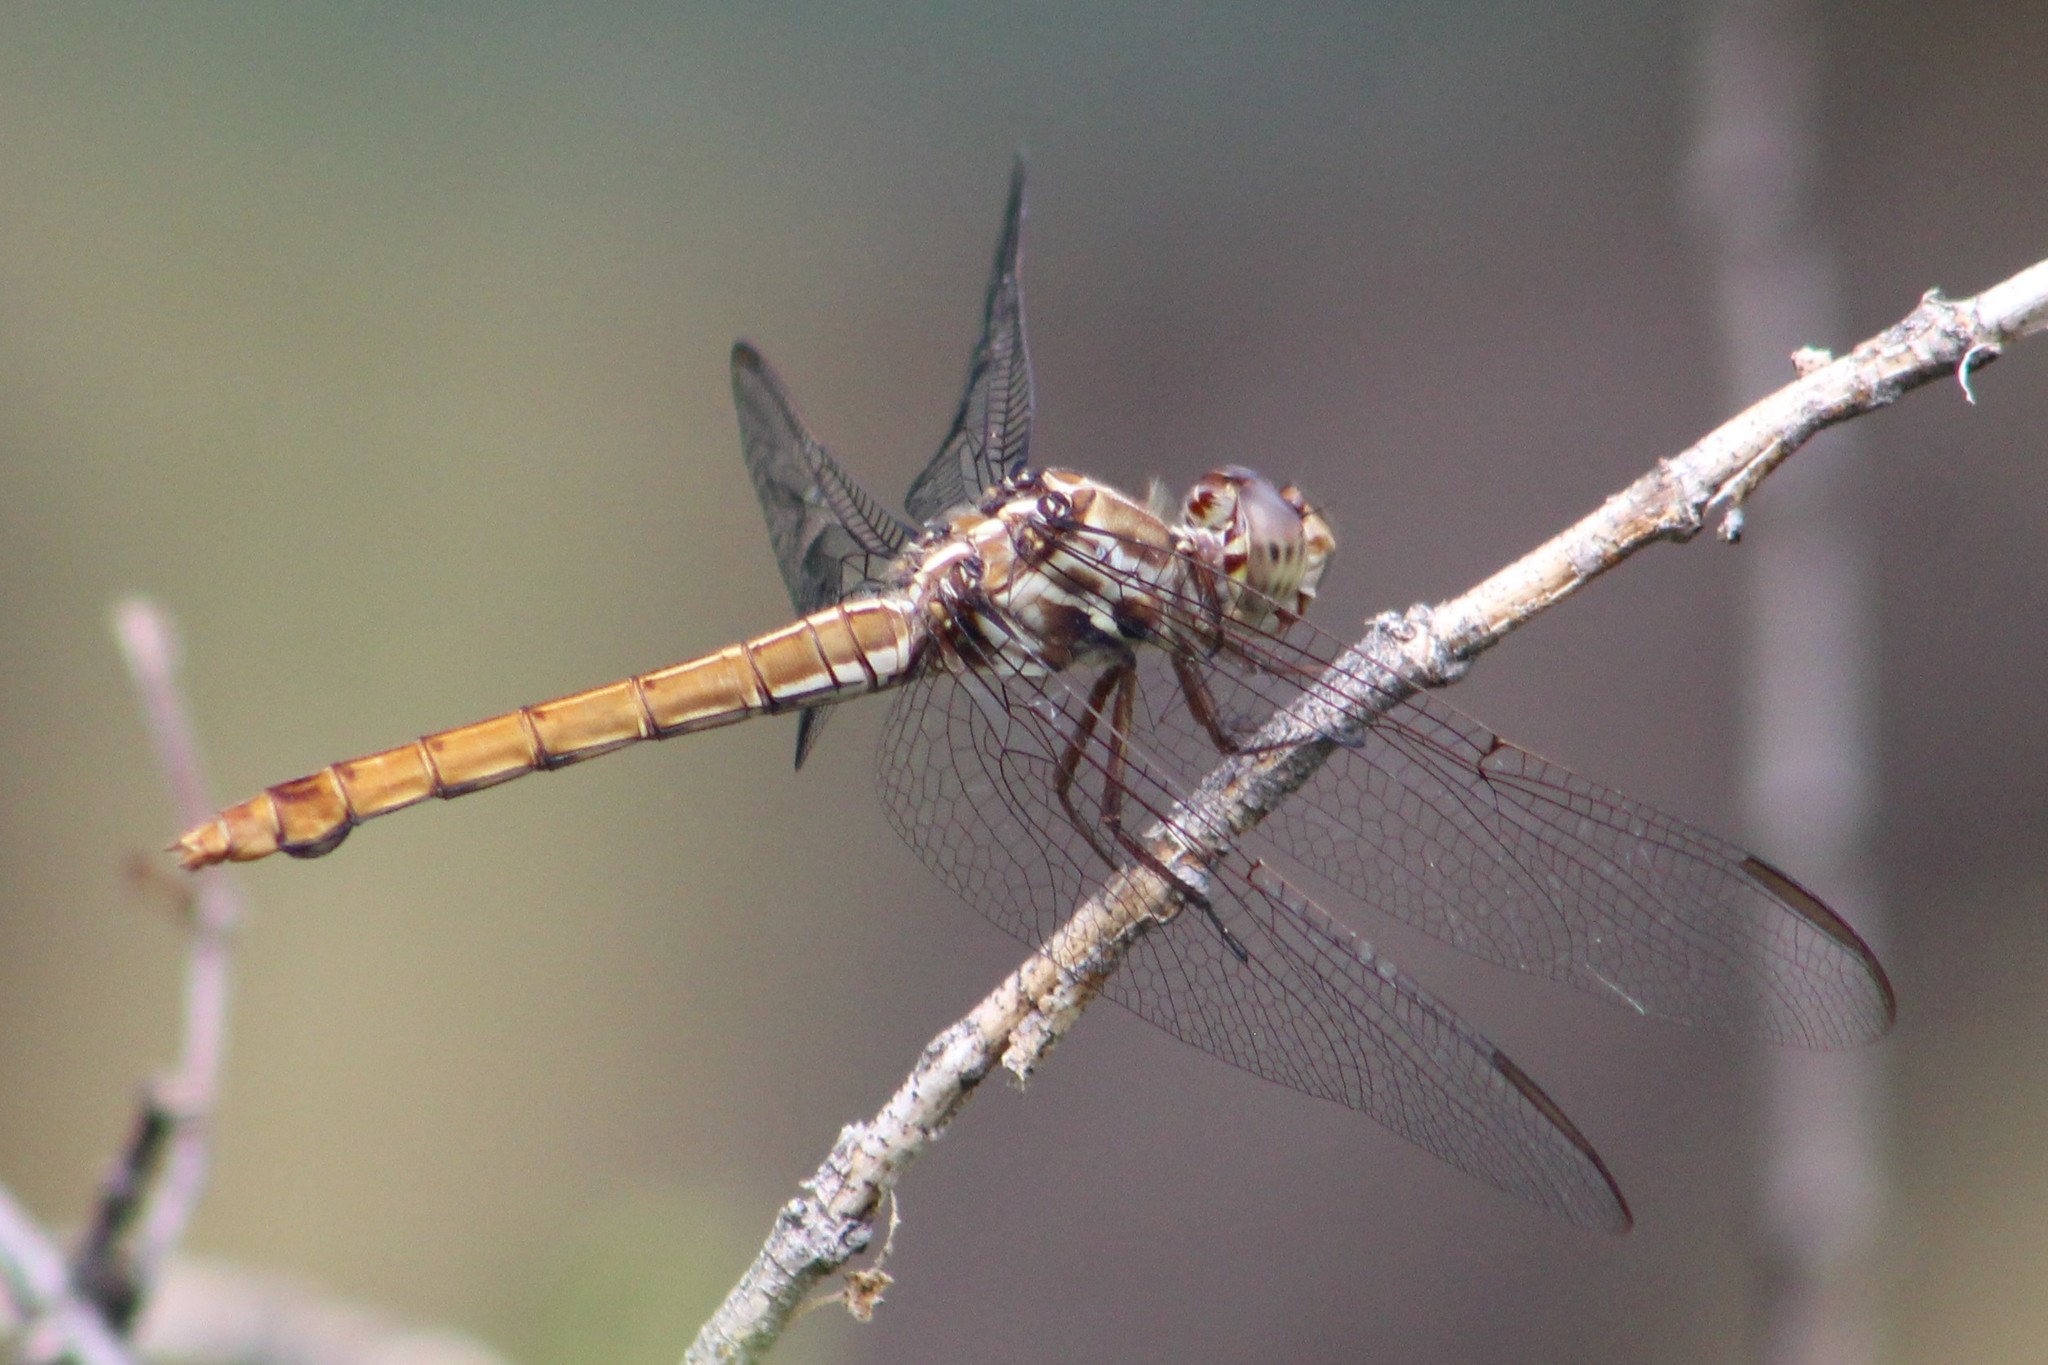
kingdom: Animalia
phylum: Arthropoda
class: Insecta
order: Odonata
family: Libellulidae
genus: Orthemis
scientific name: Orthemis ferruginea
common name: Roseate skimmer
